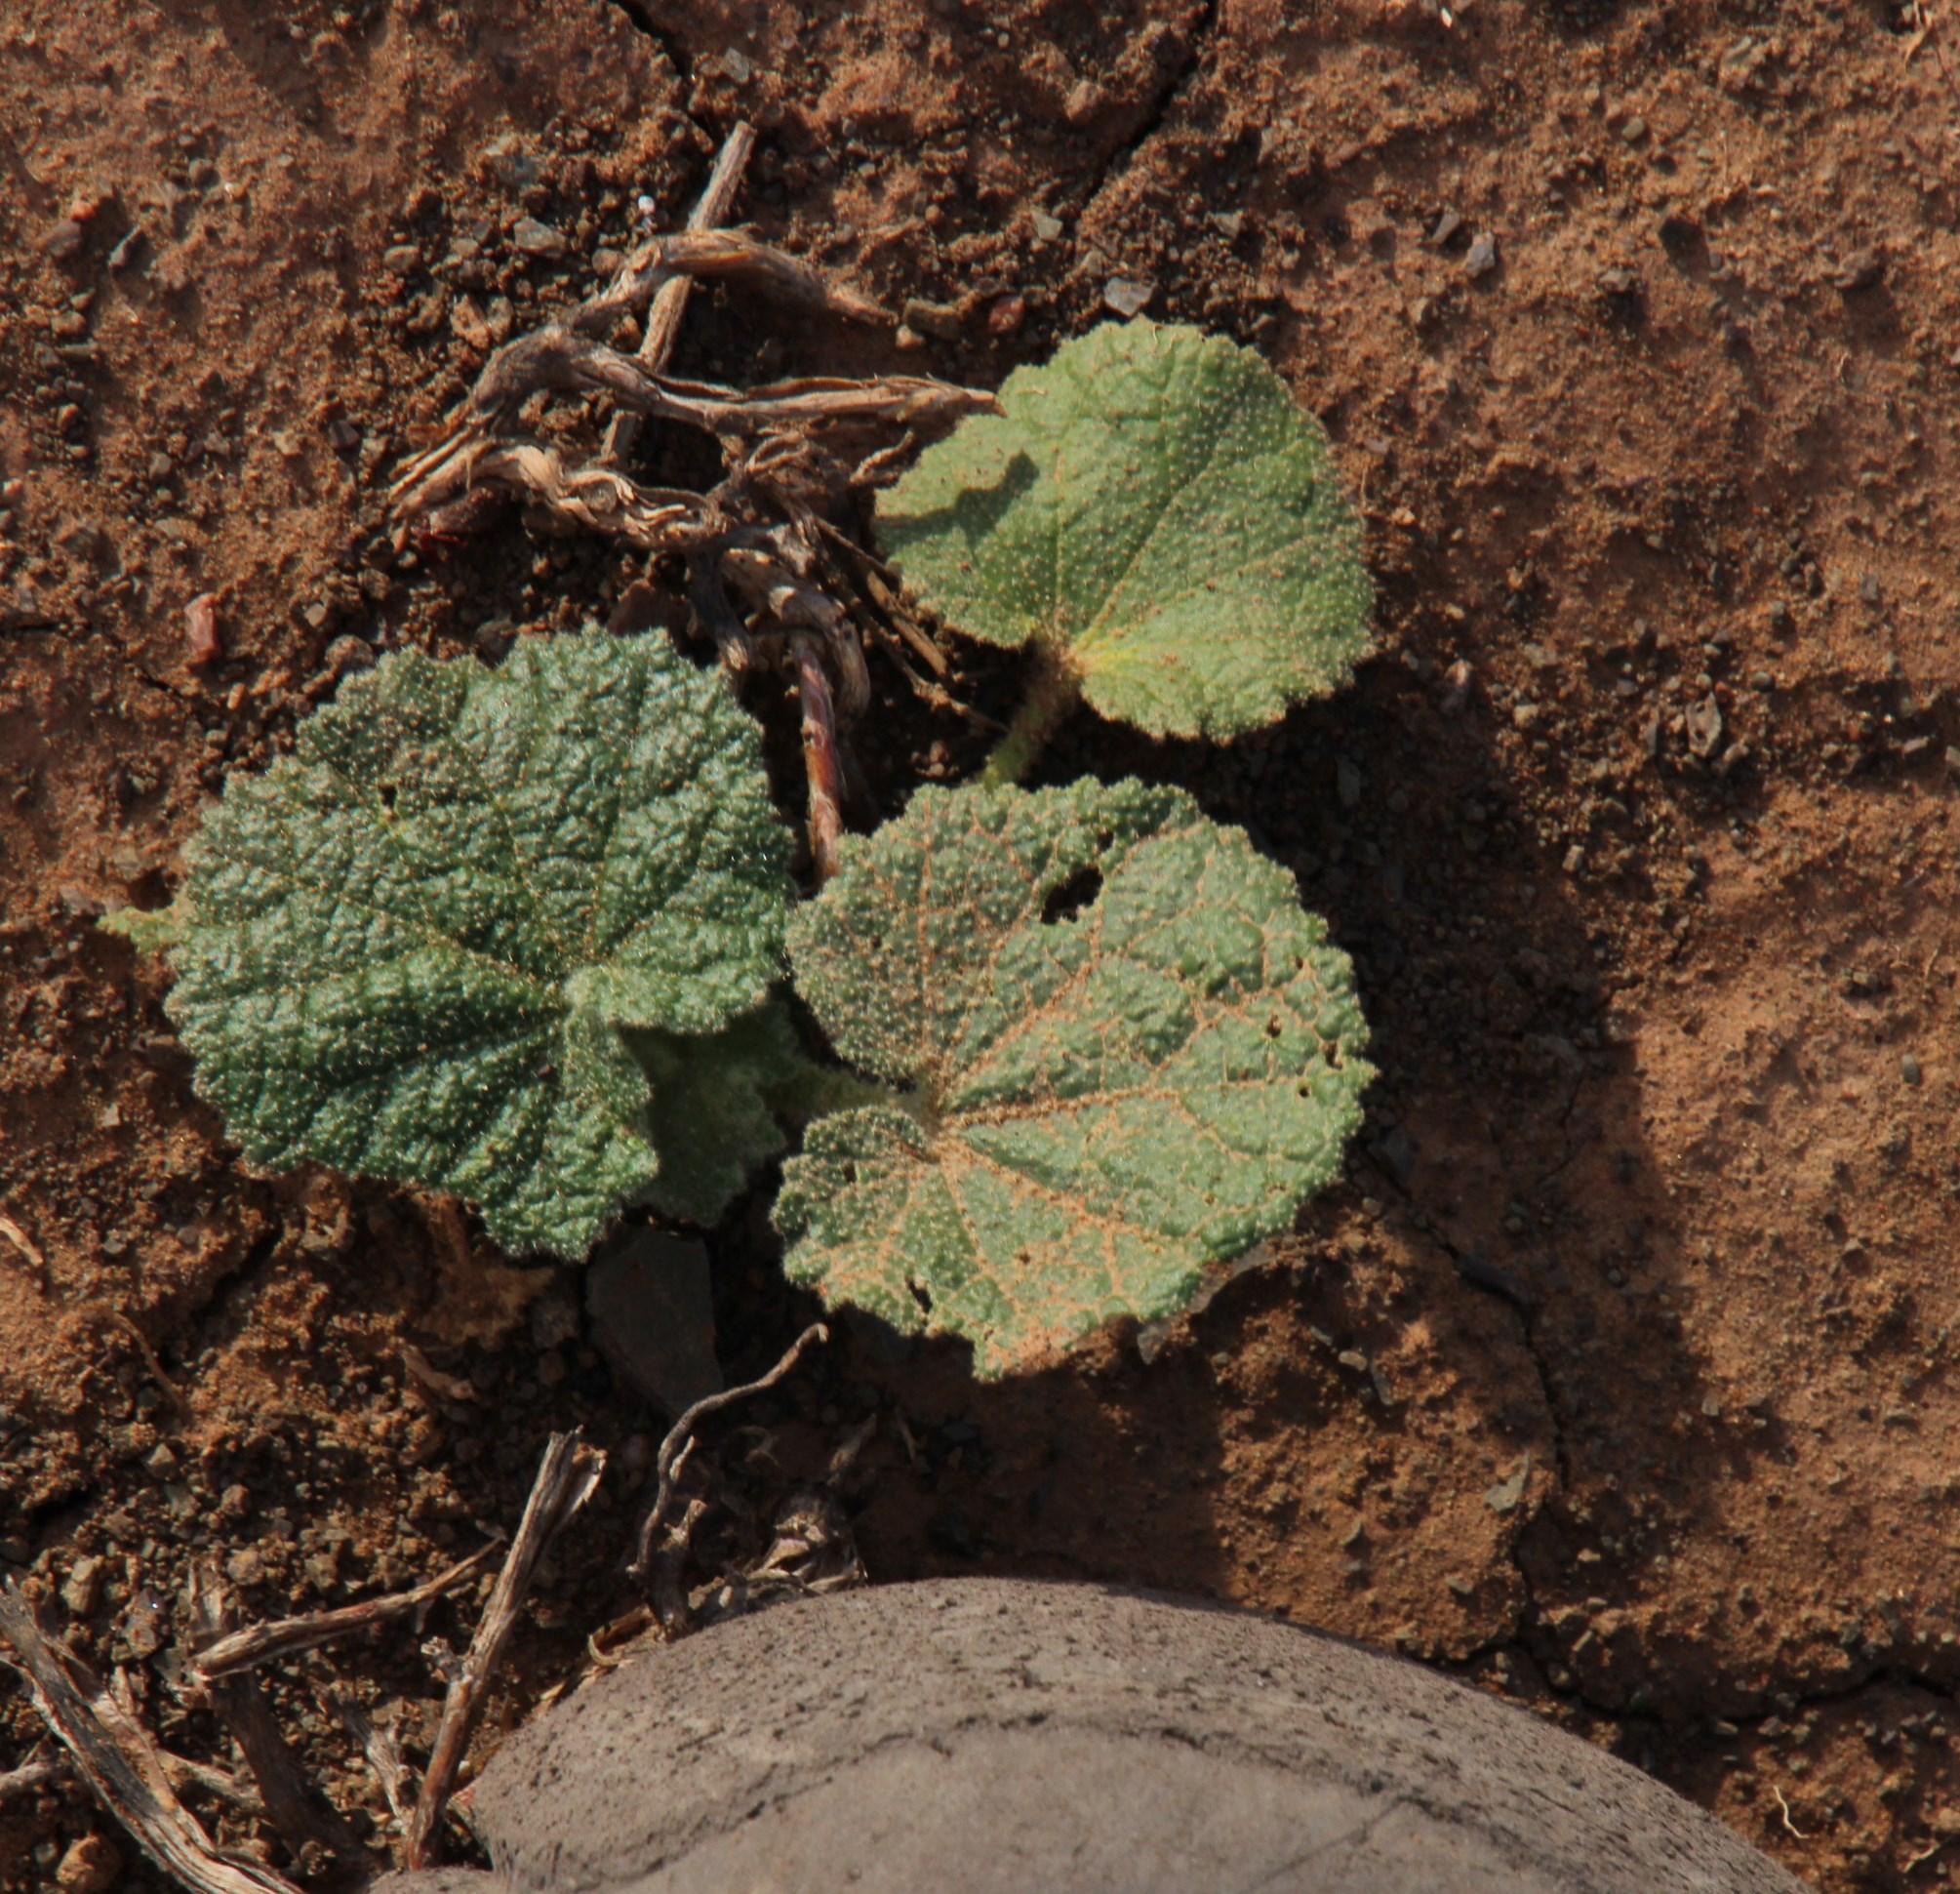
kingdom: Plantae
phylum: Tracheophyta
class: Magnoliopsida
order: Malvales
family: Malvaceae
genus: Radyera
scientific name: Radyera urens
